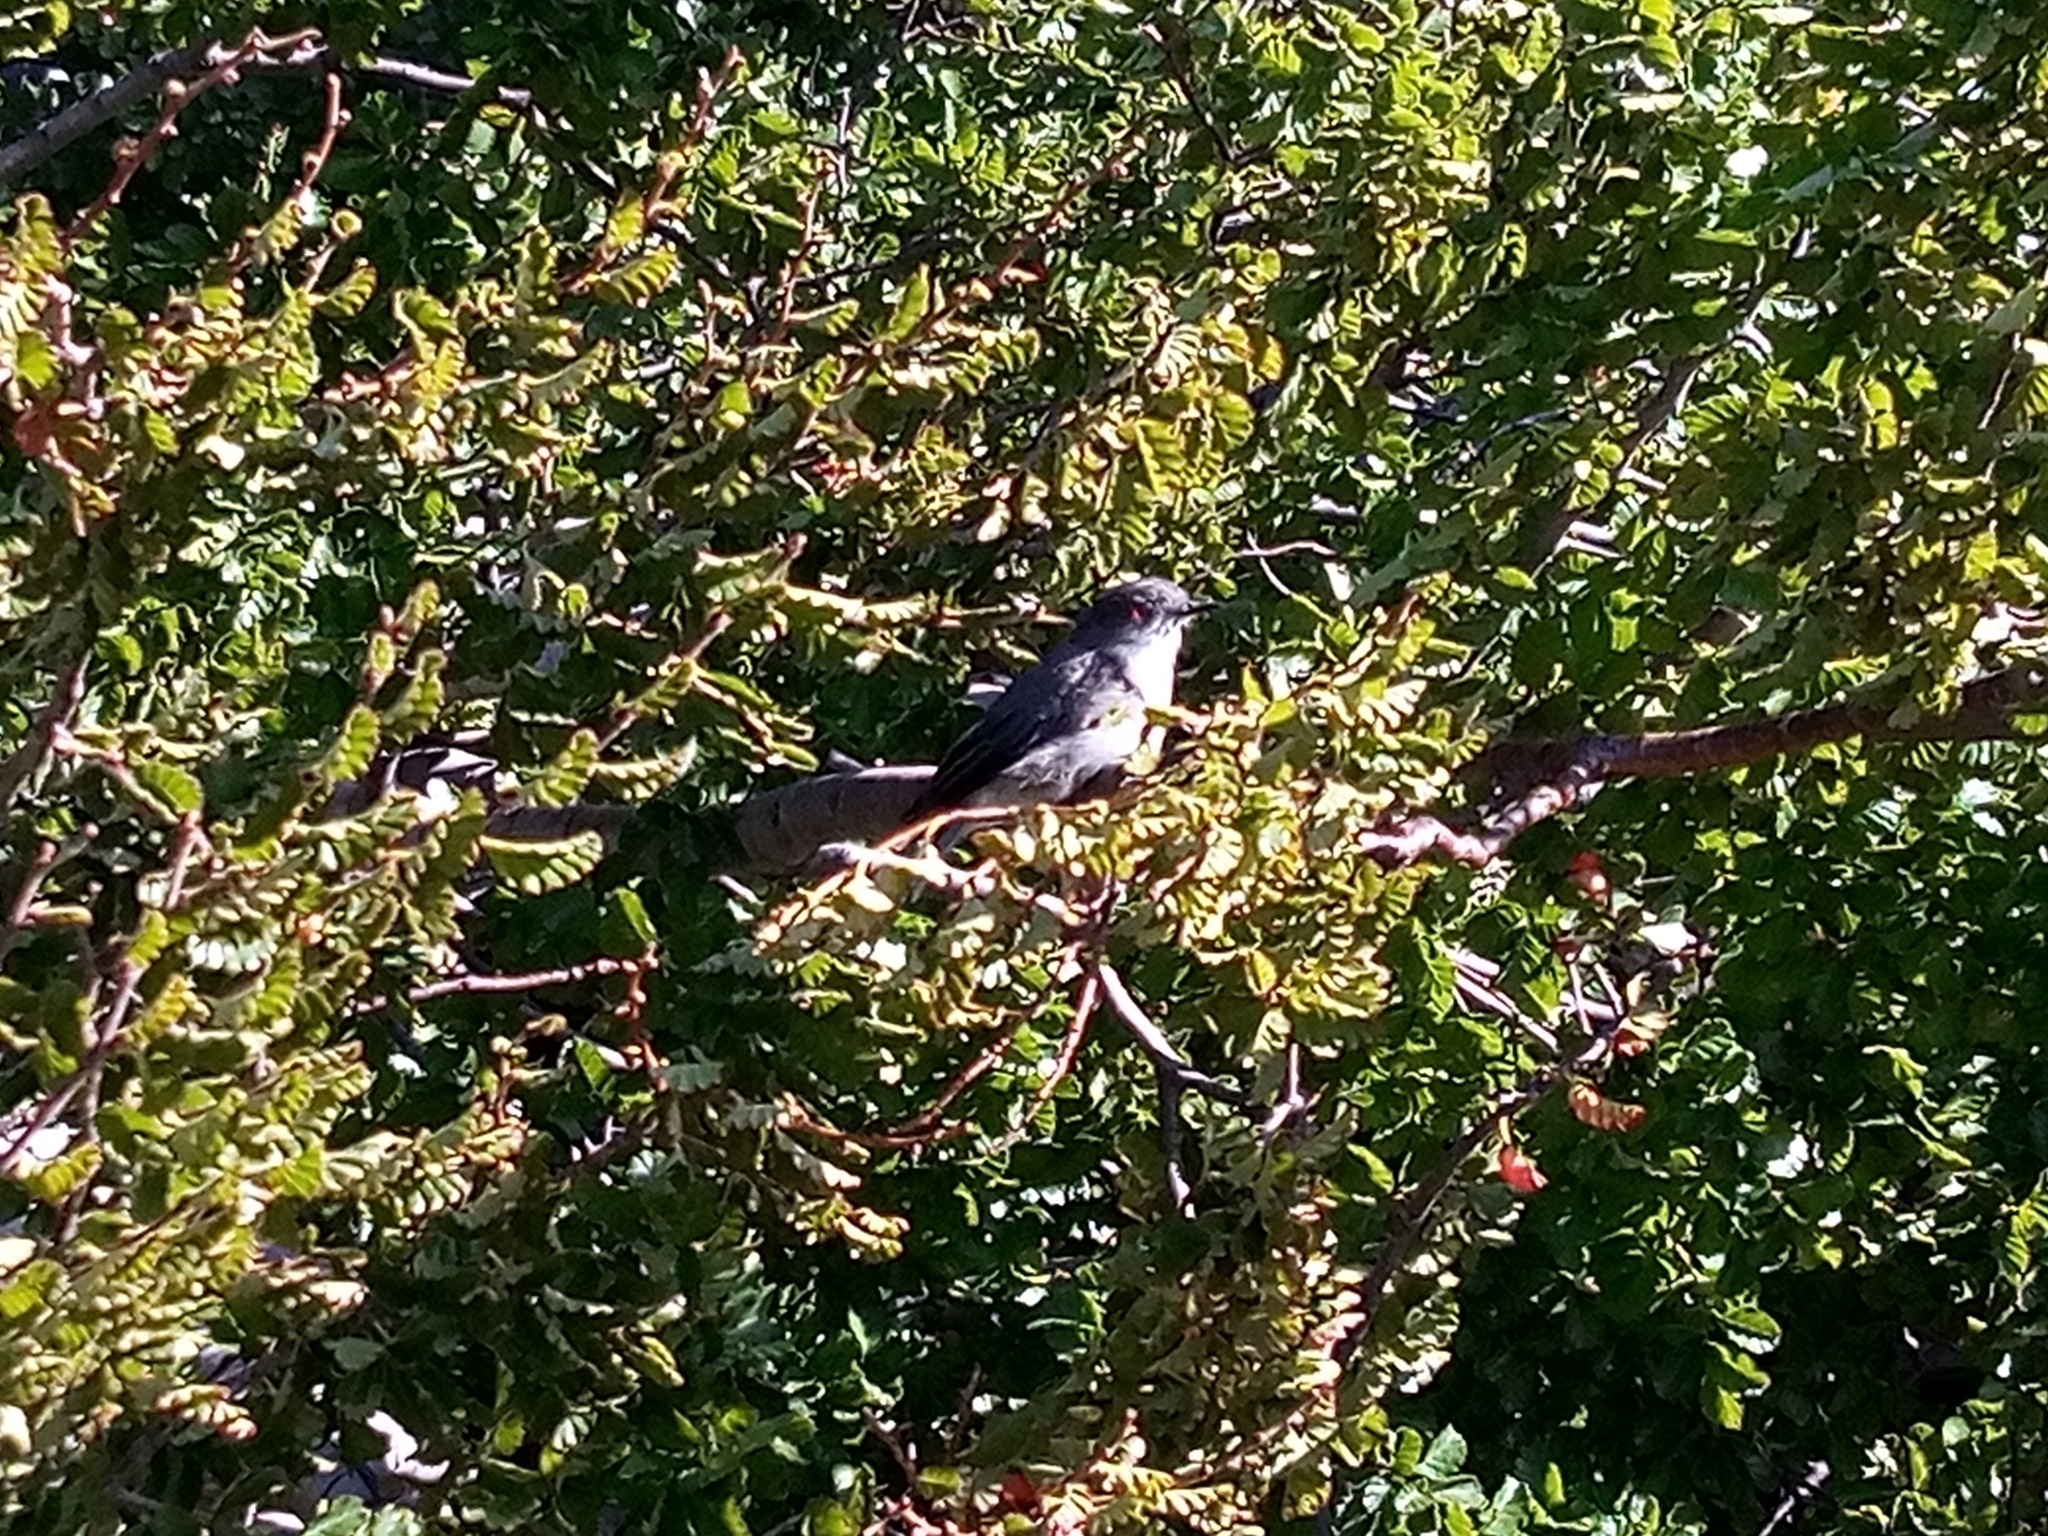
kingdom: Animalia
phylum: Chordata
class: Aves
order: Passeriformes
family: Tyrannidae
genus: Xolmis
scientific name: Xolmis pyrope
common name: Fire-eyed diucon
